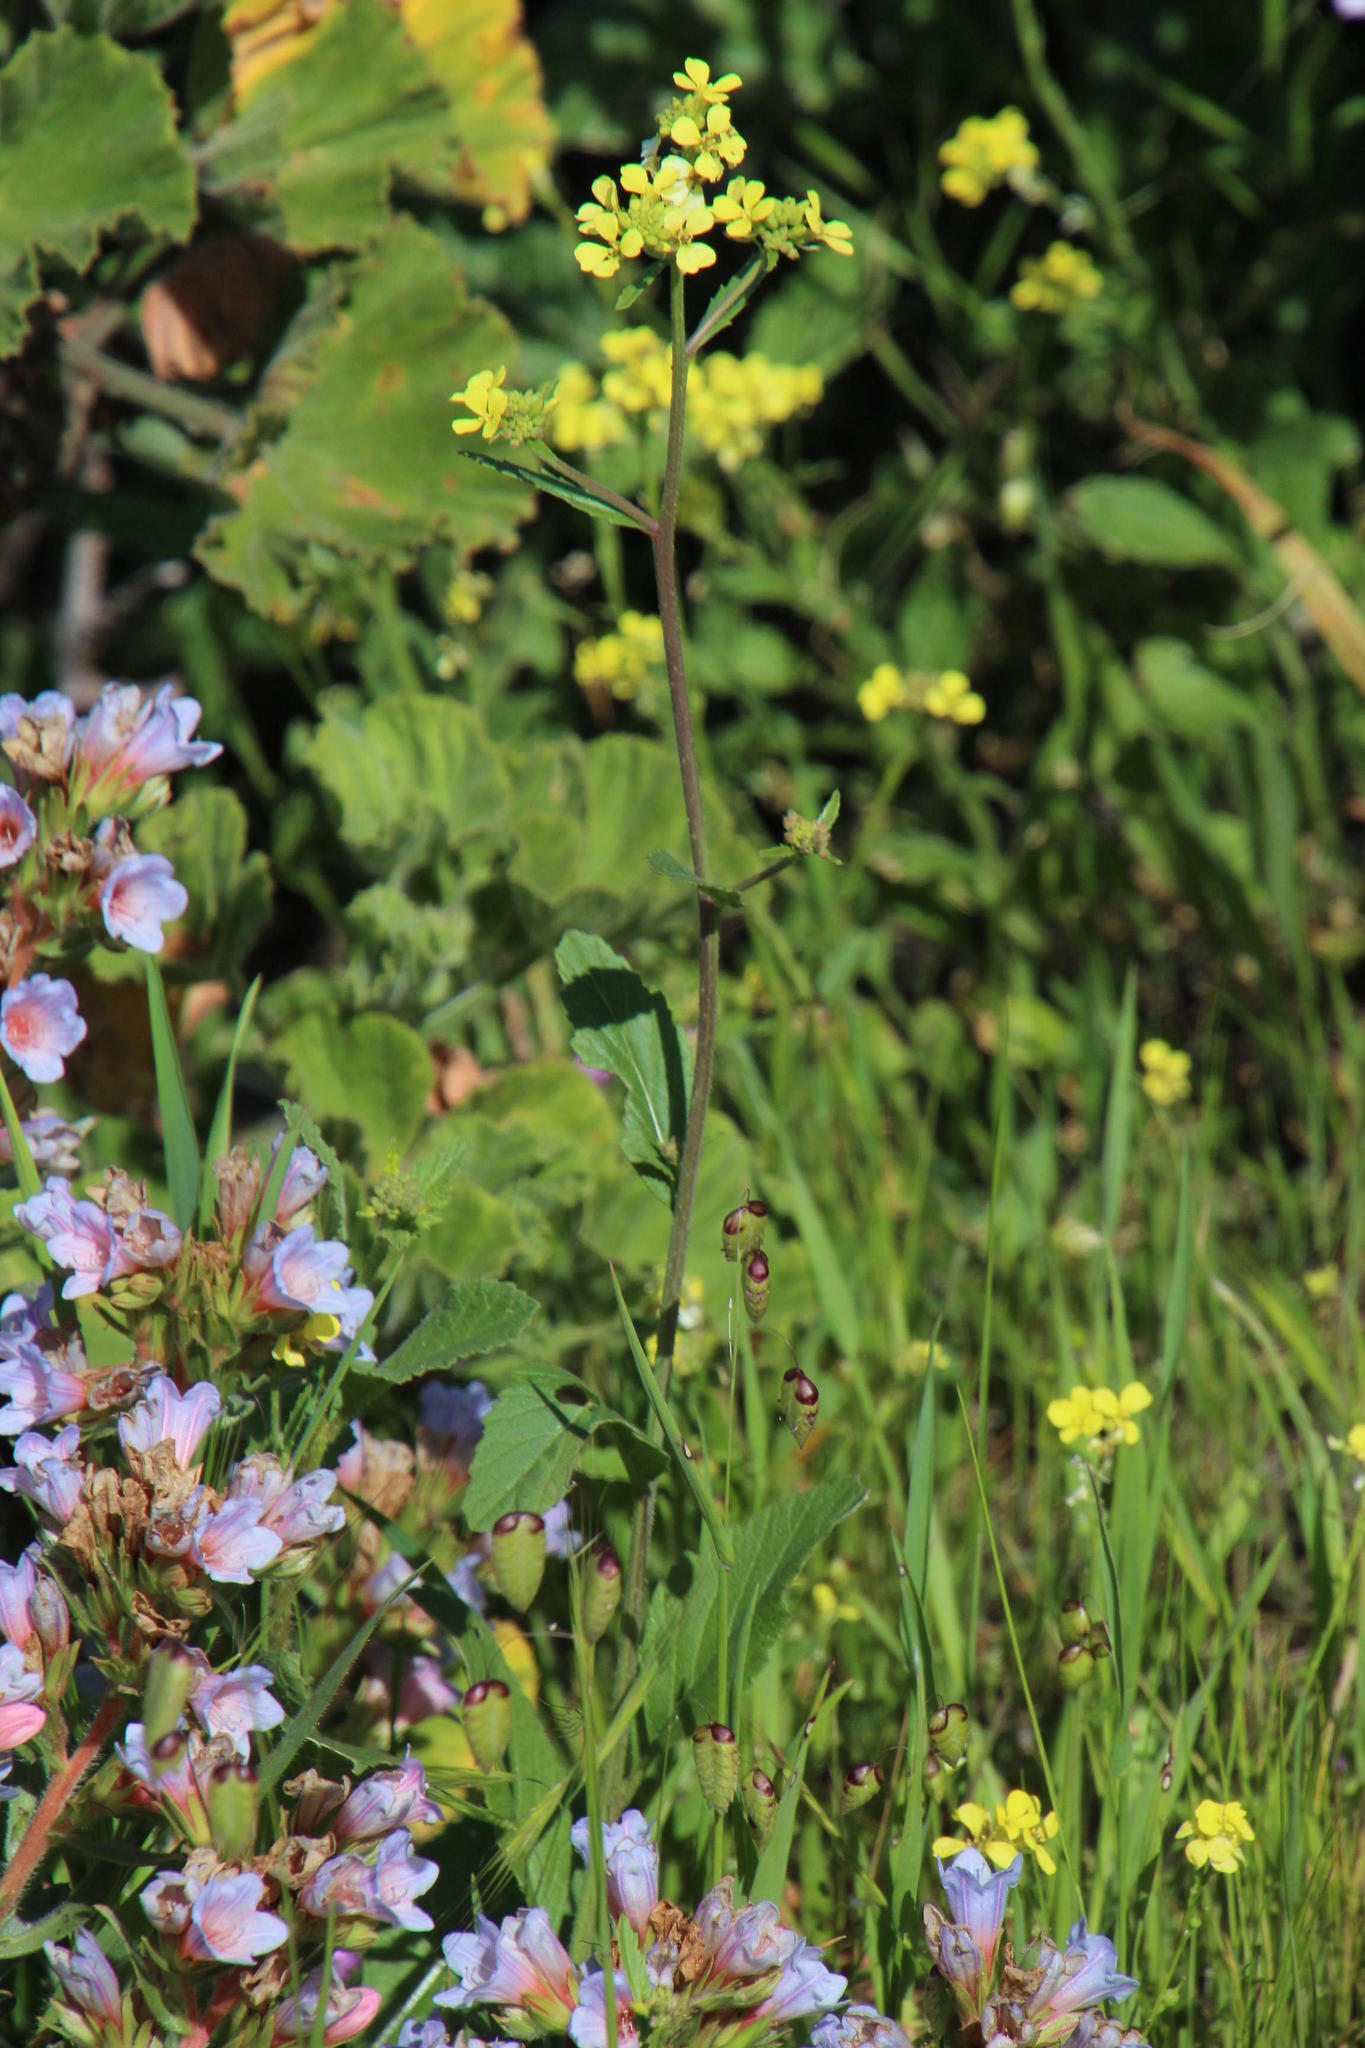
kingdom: Plantae
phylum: Tracheophyta
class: Magnoliopsida
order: Brassicales
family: Brassicaceae
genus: Rapistrum
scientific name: Rapistrum rugosum
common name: Annual bastardcabbage
